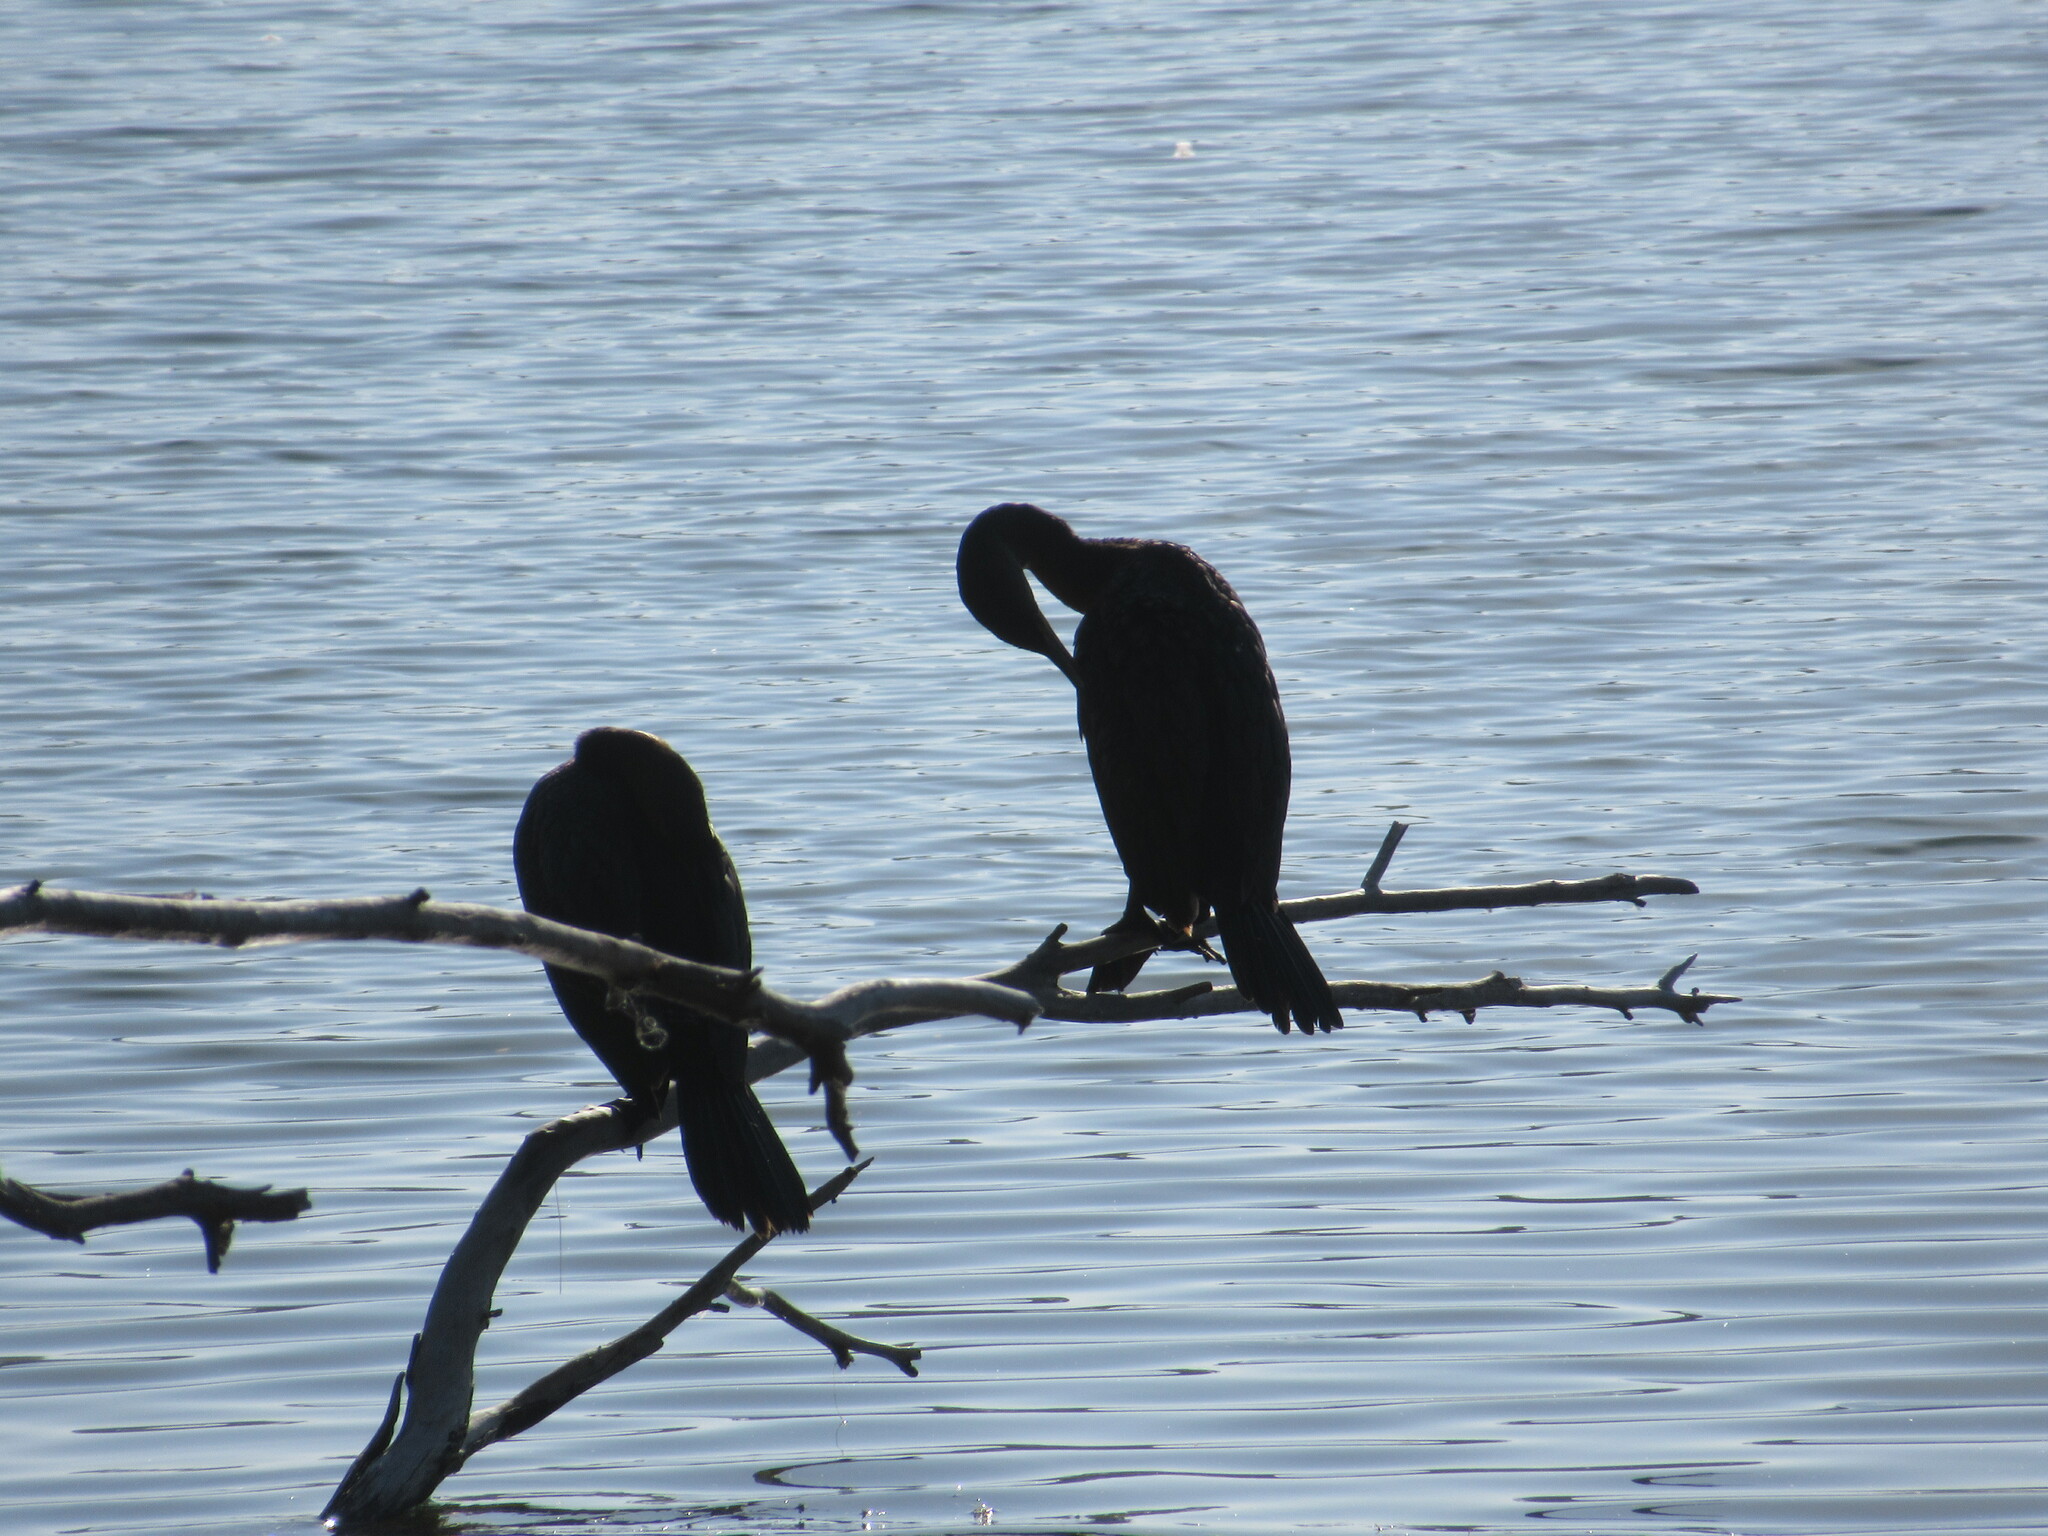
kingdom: Animalia
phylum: Chordata
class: Aves
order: Suliformes
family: Phalacrocoracidae
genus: Phalacrocorax
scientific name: Phalacrocorax auritus
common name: Double-crested cormorant
